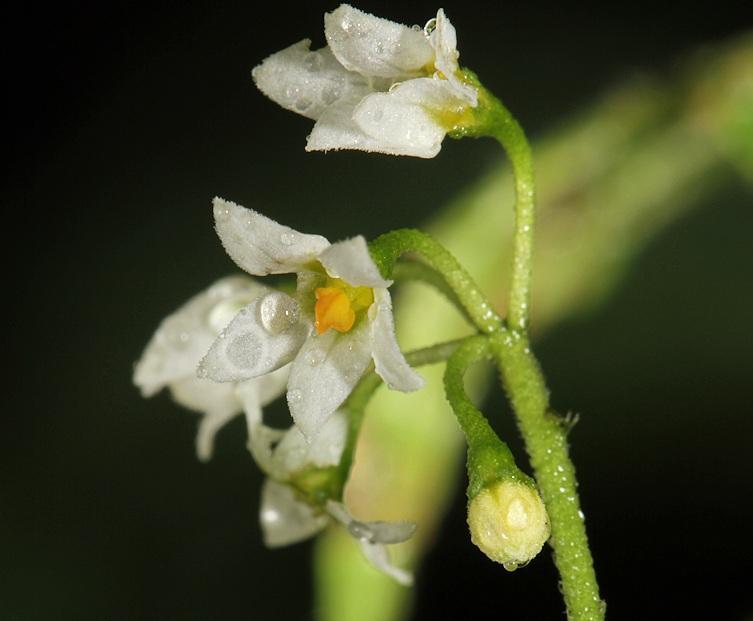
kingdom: Plantae
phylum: Tracheophyta
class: Magnoliopsida
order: Solanales
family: Solanaceae
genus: Solanum
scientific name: Solanum americanum
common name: American black nightshade
